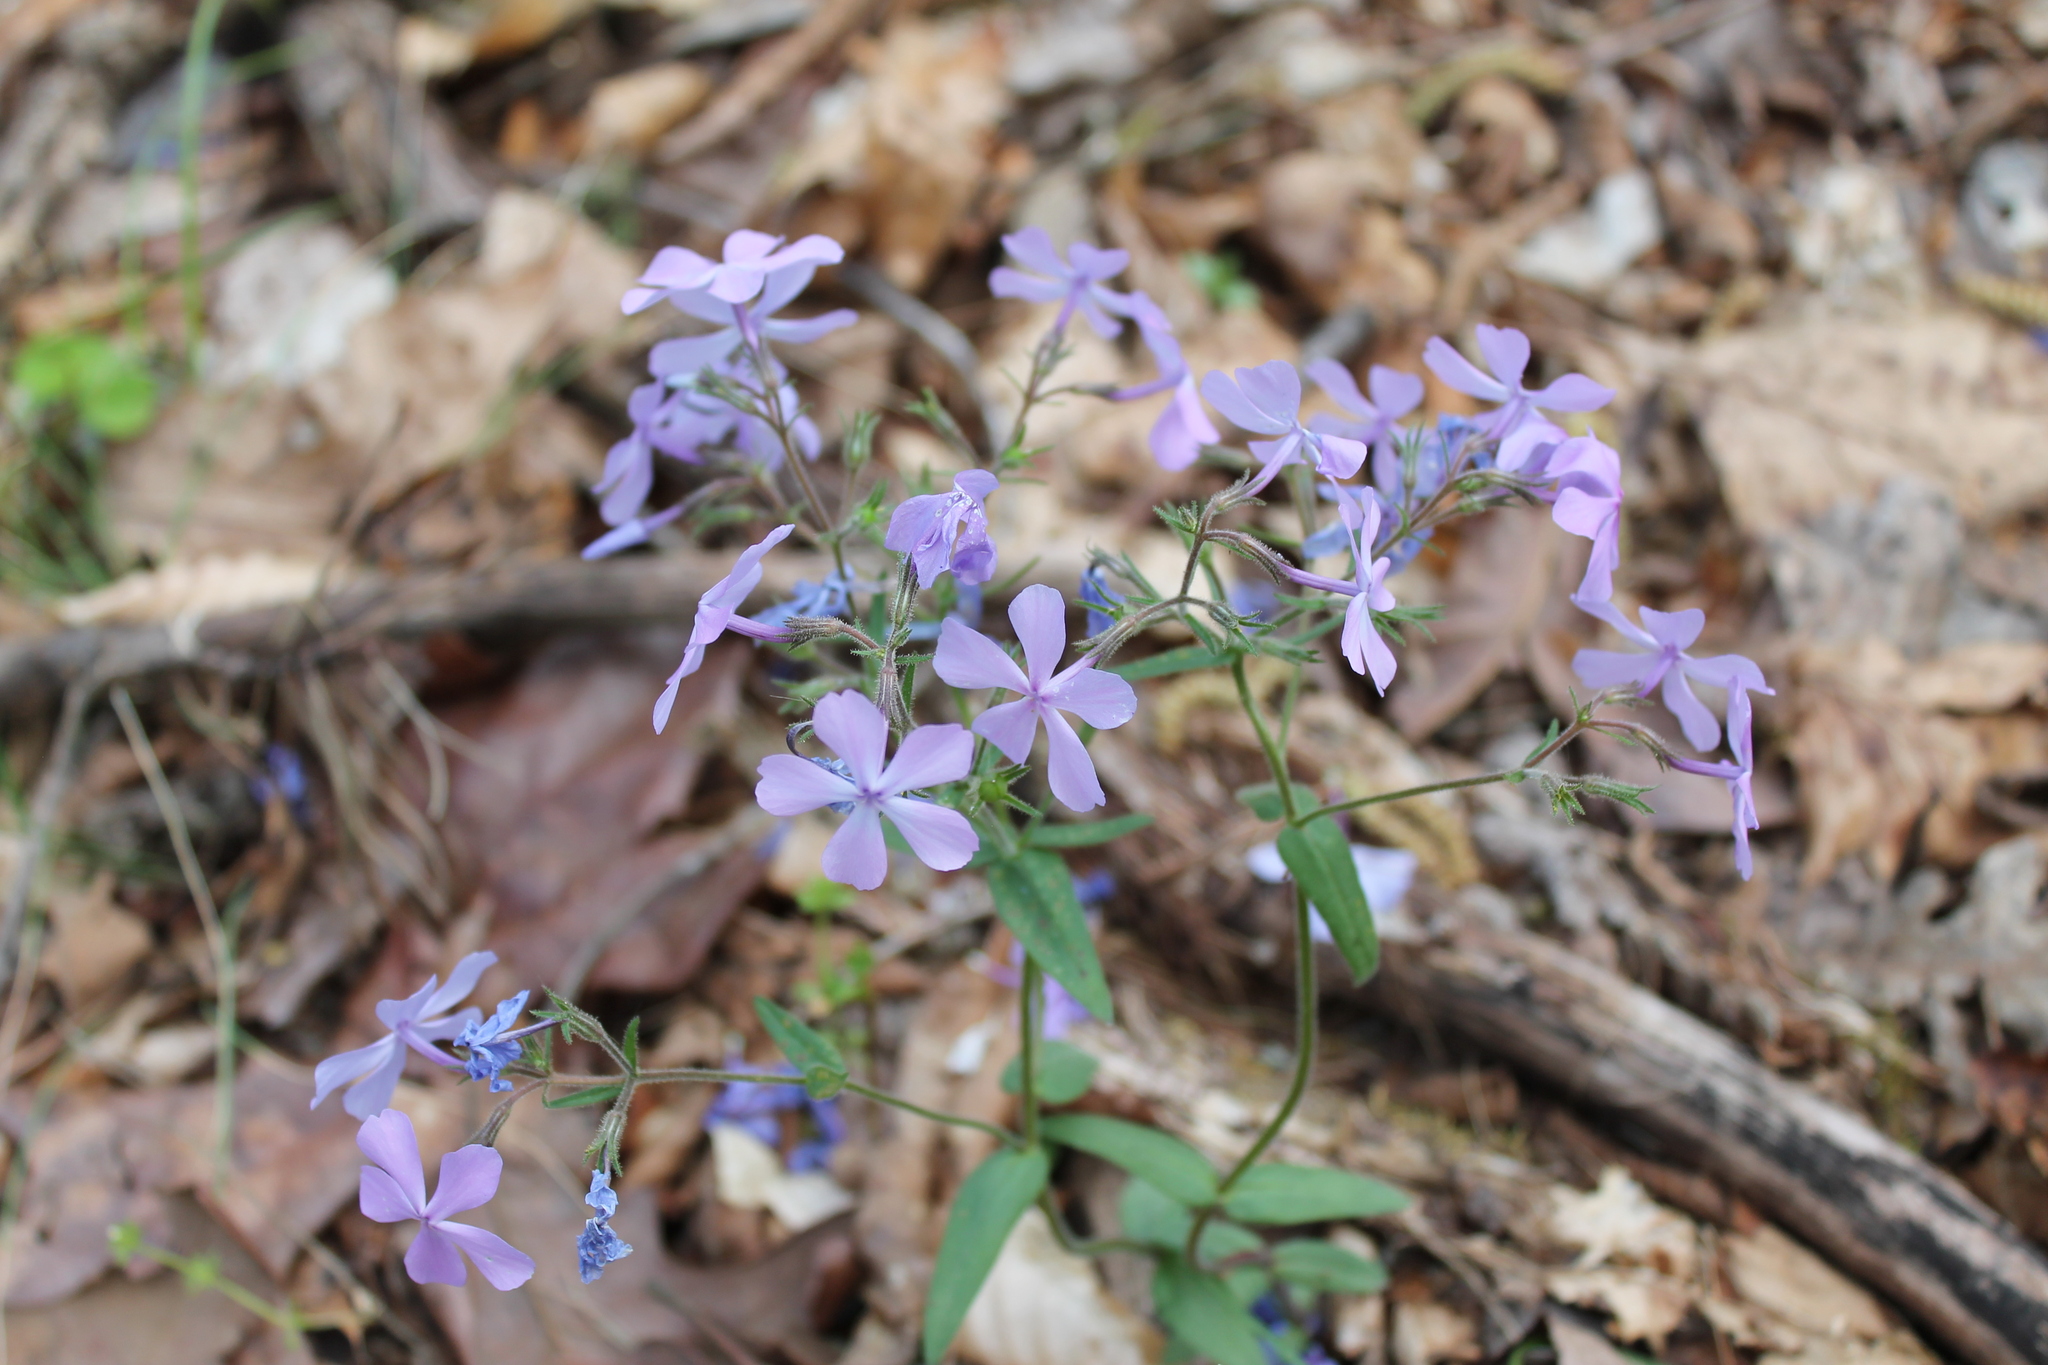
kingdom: Plantae
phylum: Tracheophyta
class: Magnoliopsida
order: Ericales
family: Polemoniaceae
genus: Phlox
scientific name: Phlox divaricata
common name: Blue phlox
